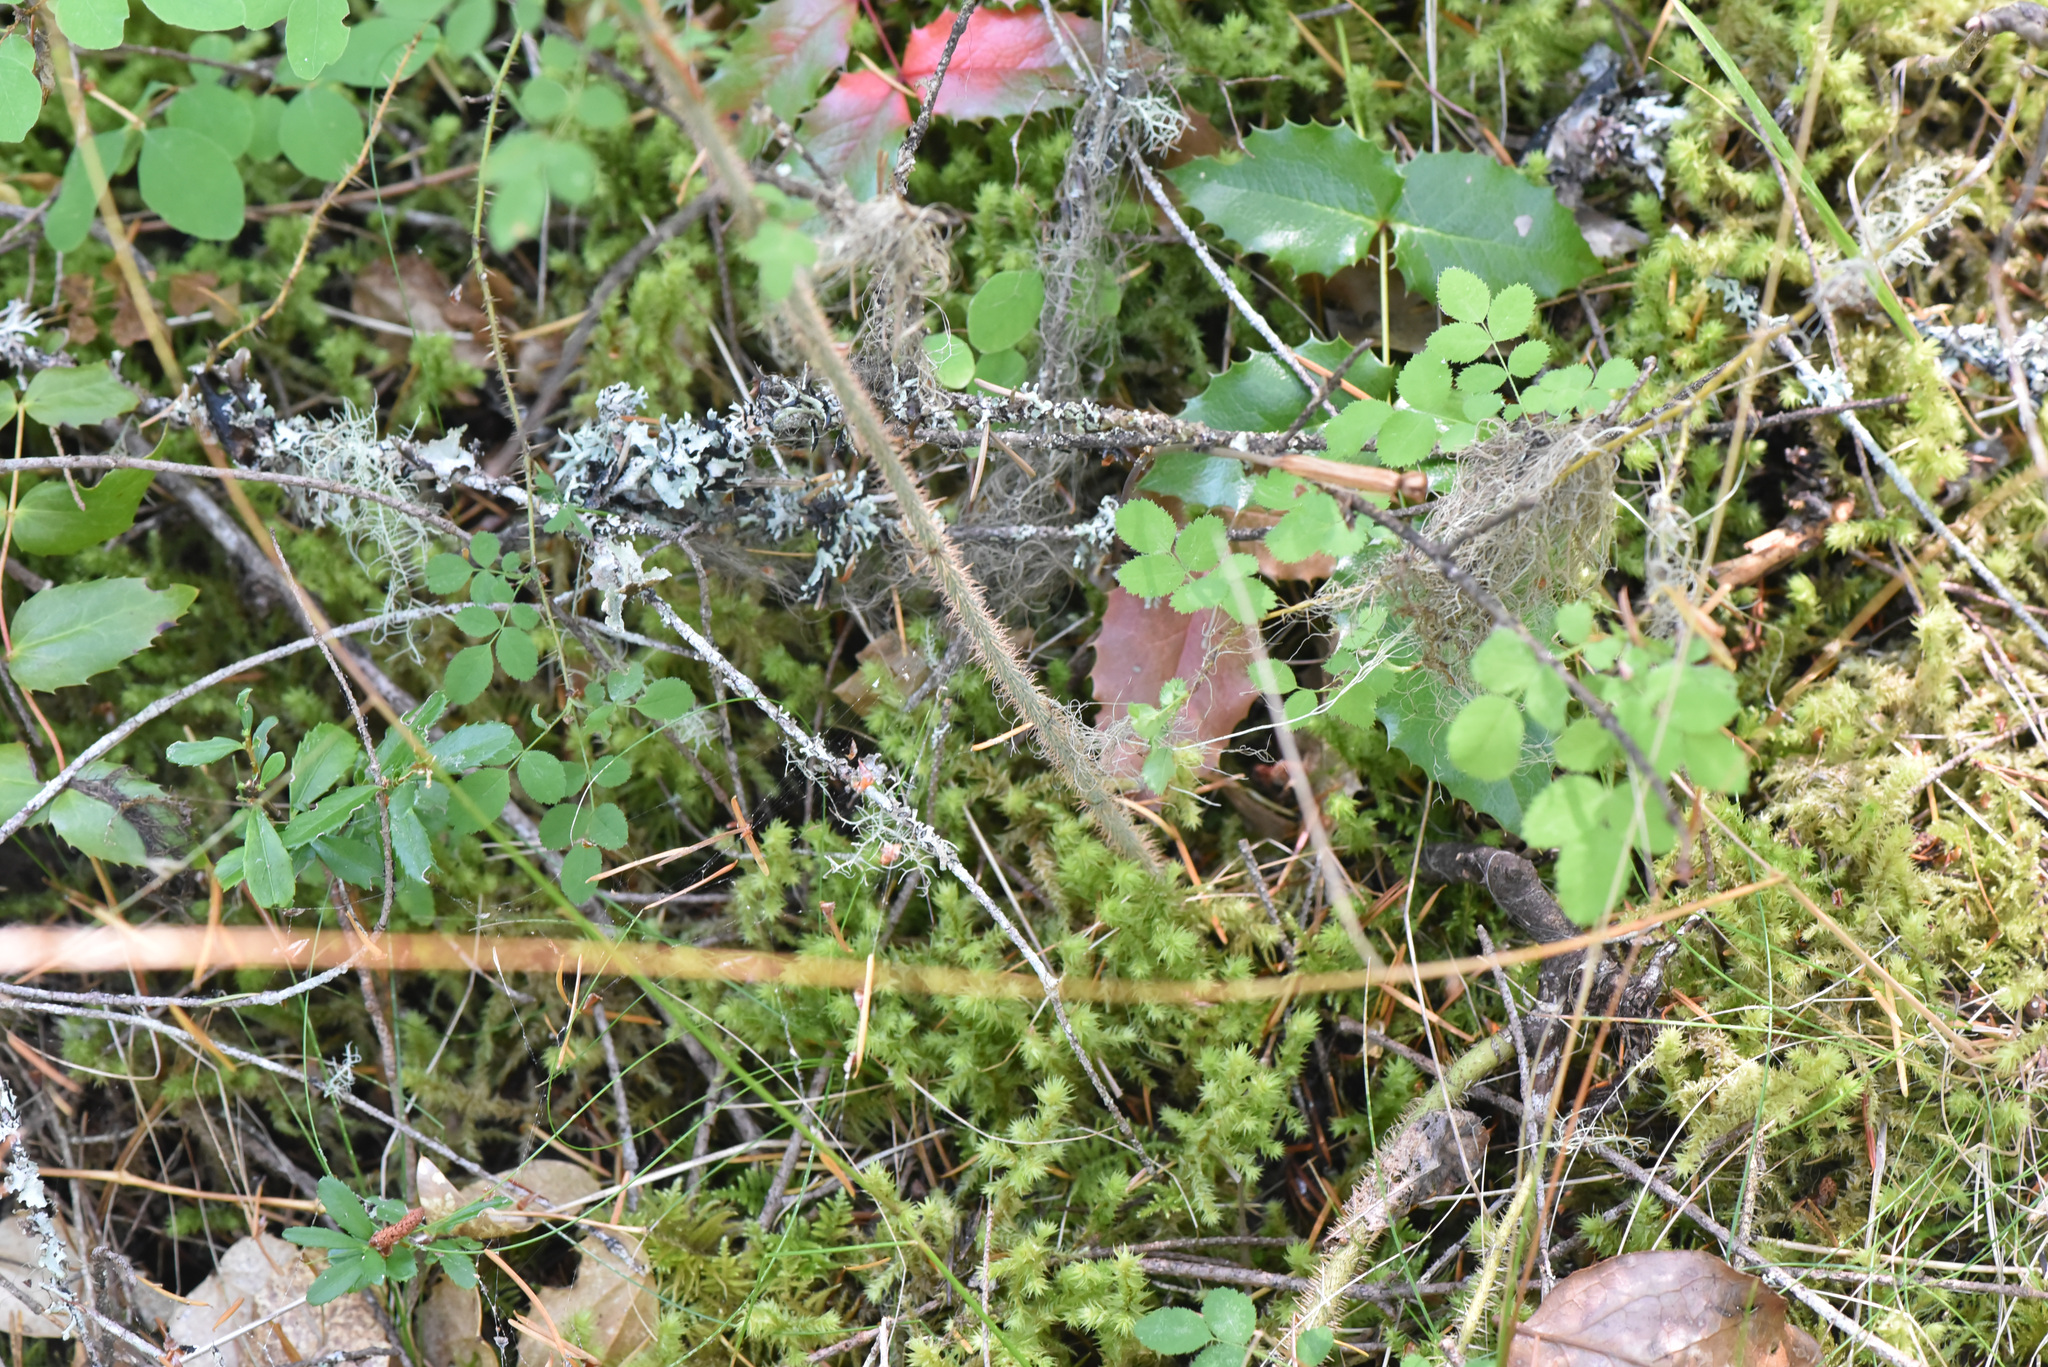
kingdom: Plantae
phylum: Tracheophyta
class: Magnoliopsida
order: Rosales
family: Rosaceae
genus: Rosa
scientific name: Rosa gymnocarpa
